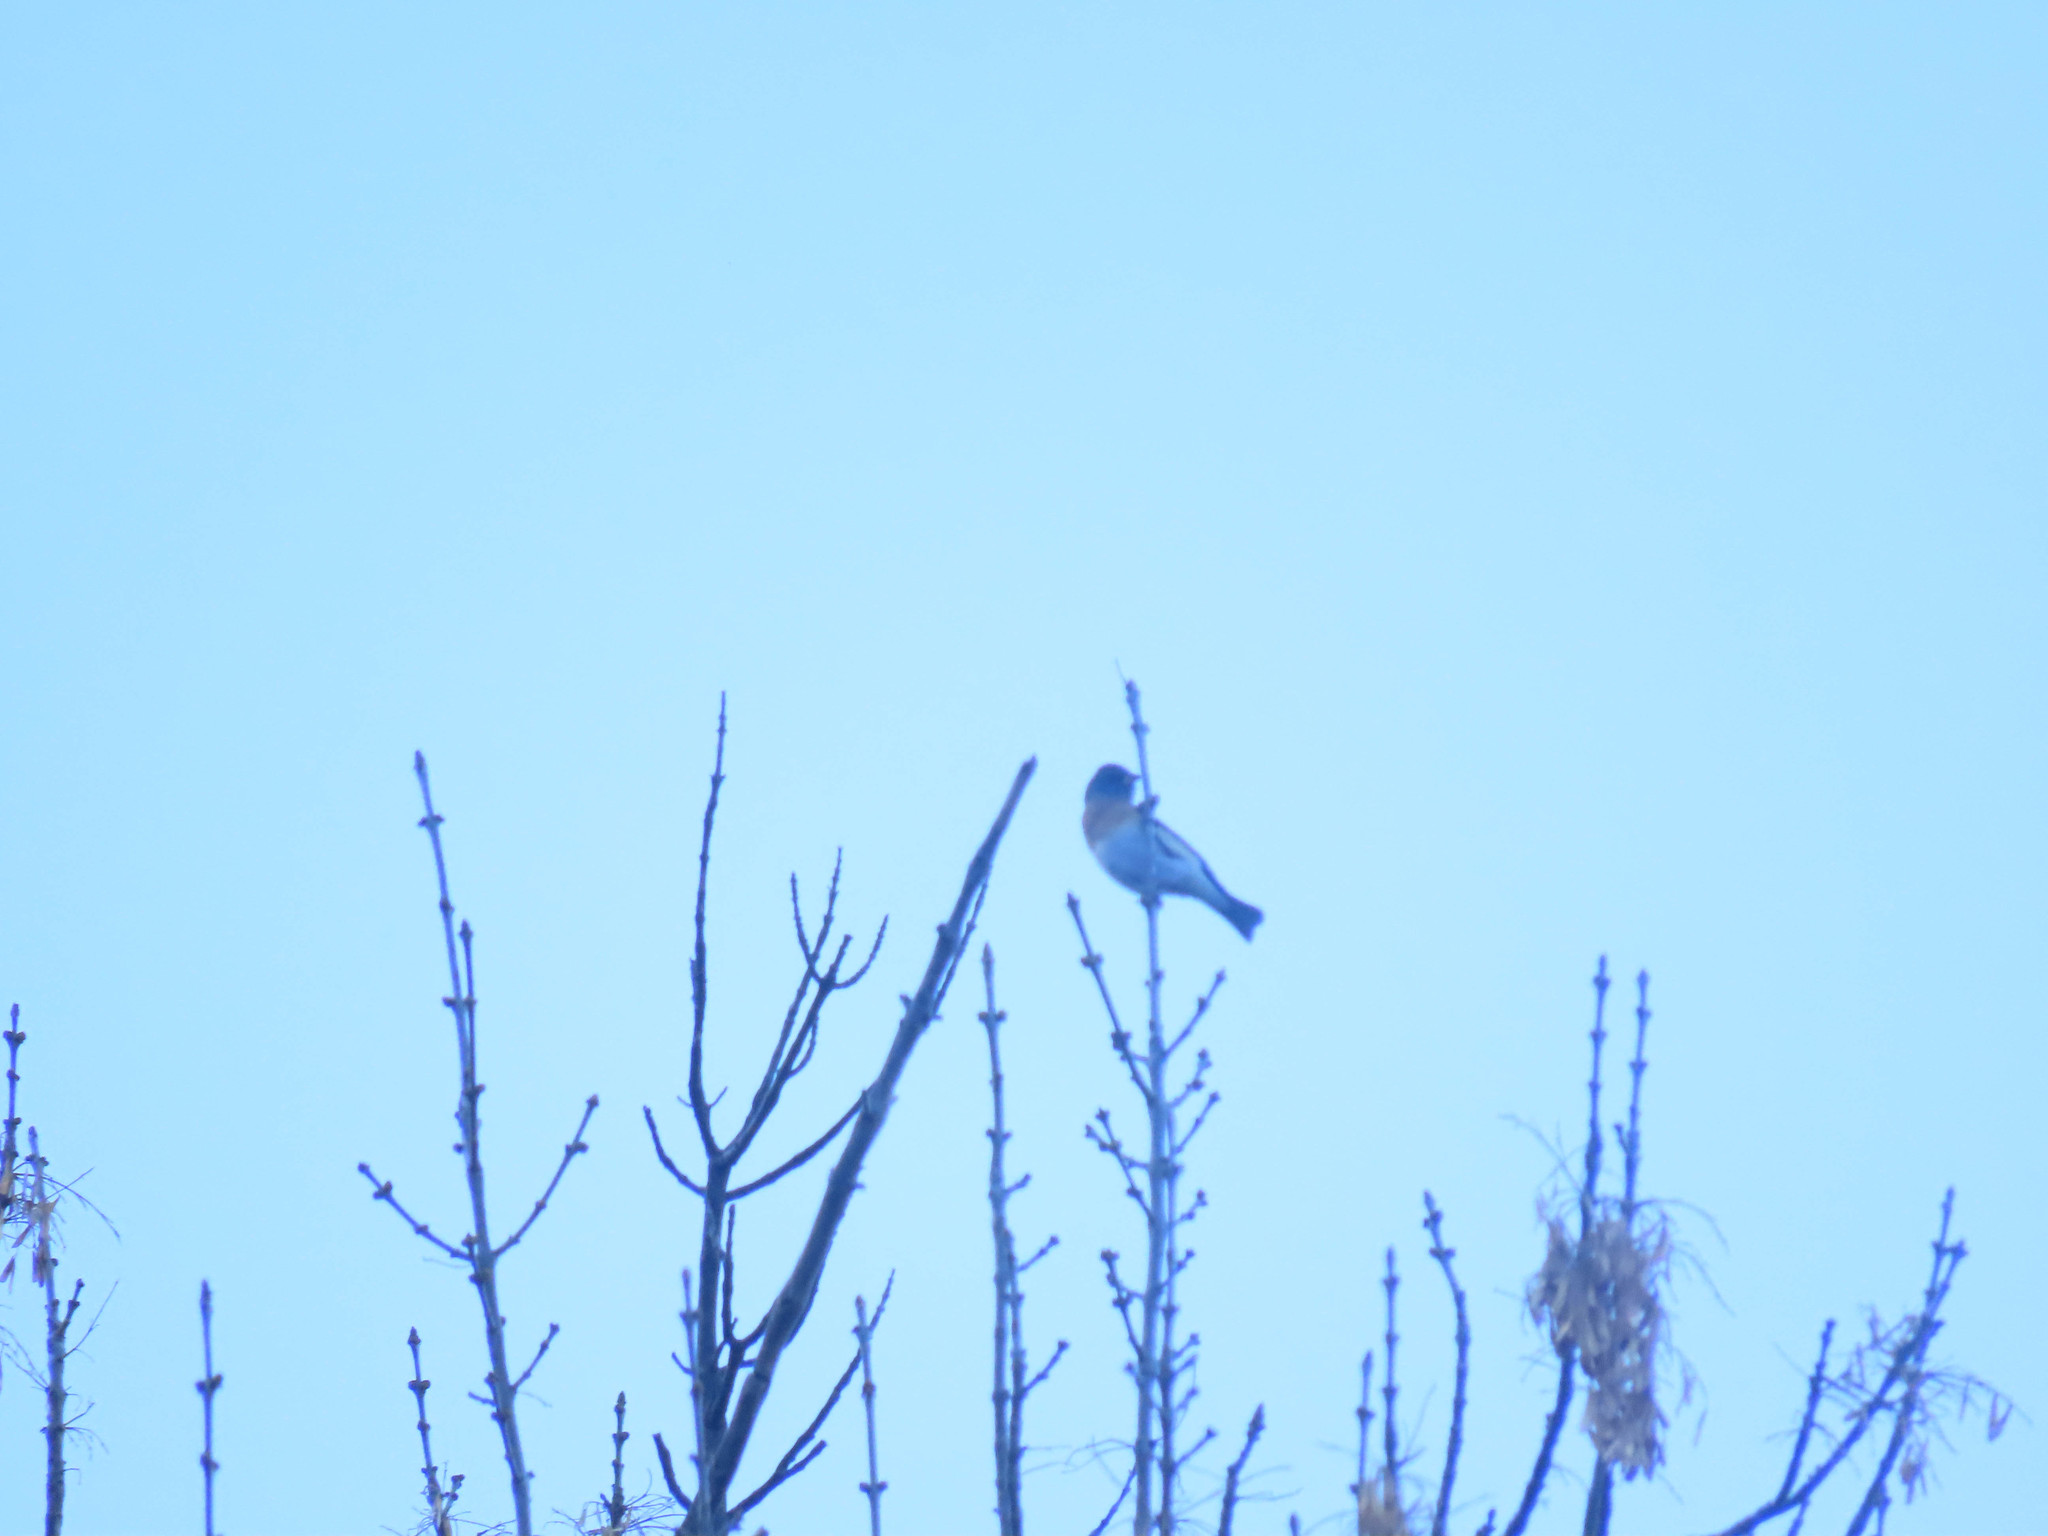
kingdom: Animalia
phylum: Chordata
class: Aves
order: Passeriformes
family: Cardinalidae
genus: Passerina
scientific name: Passerina amoena
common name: Lazuli bunting
